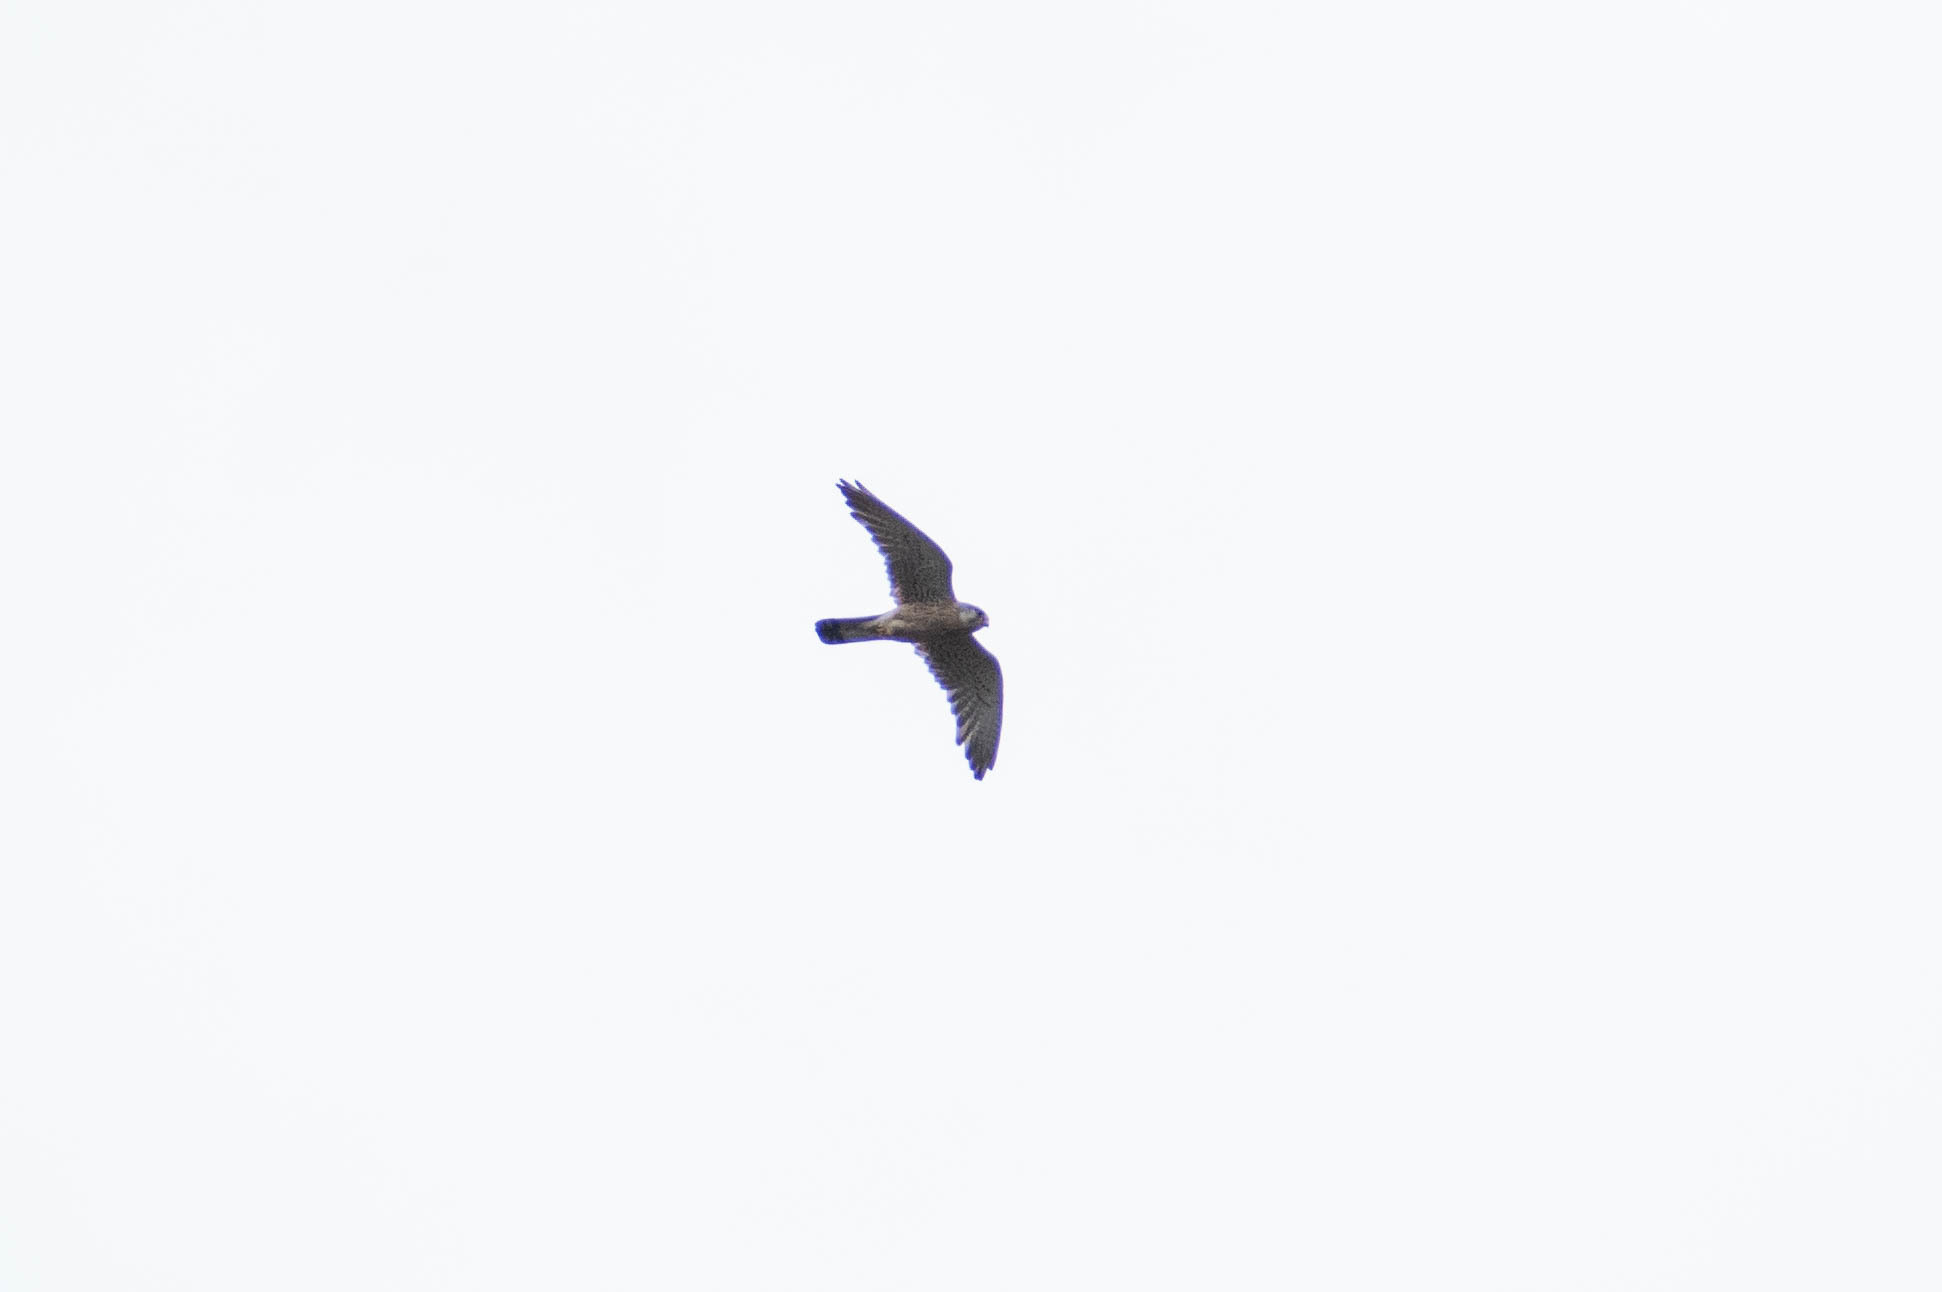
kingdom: Animalia
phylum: Chordata
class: Aves
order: Falconiformes
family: Falconidae
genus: Falco
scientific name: Falco tinnunculus
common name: Common kestrel
